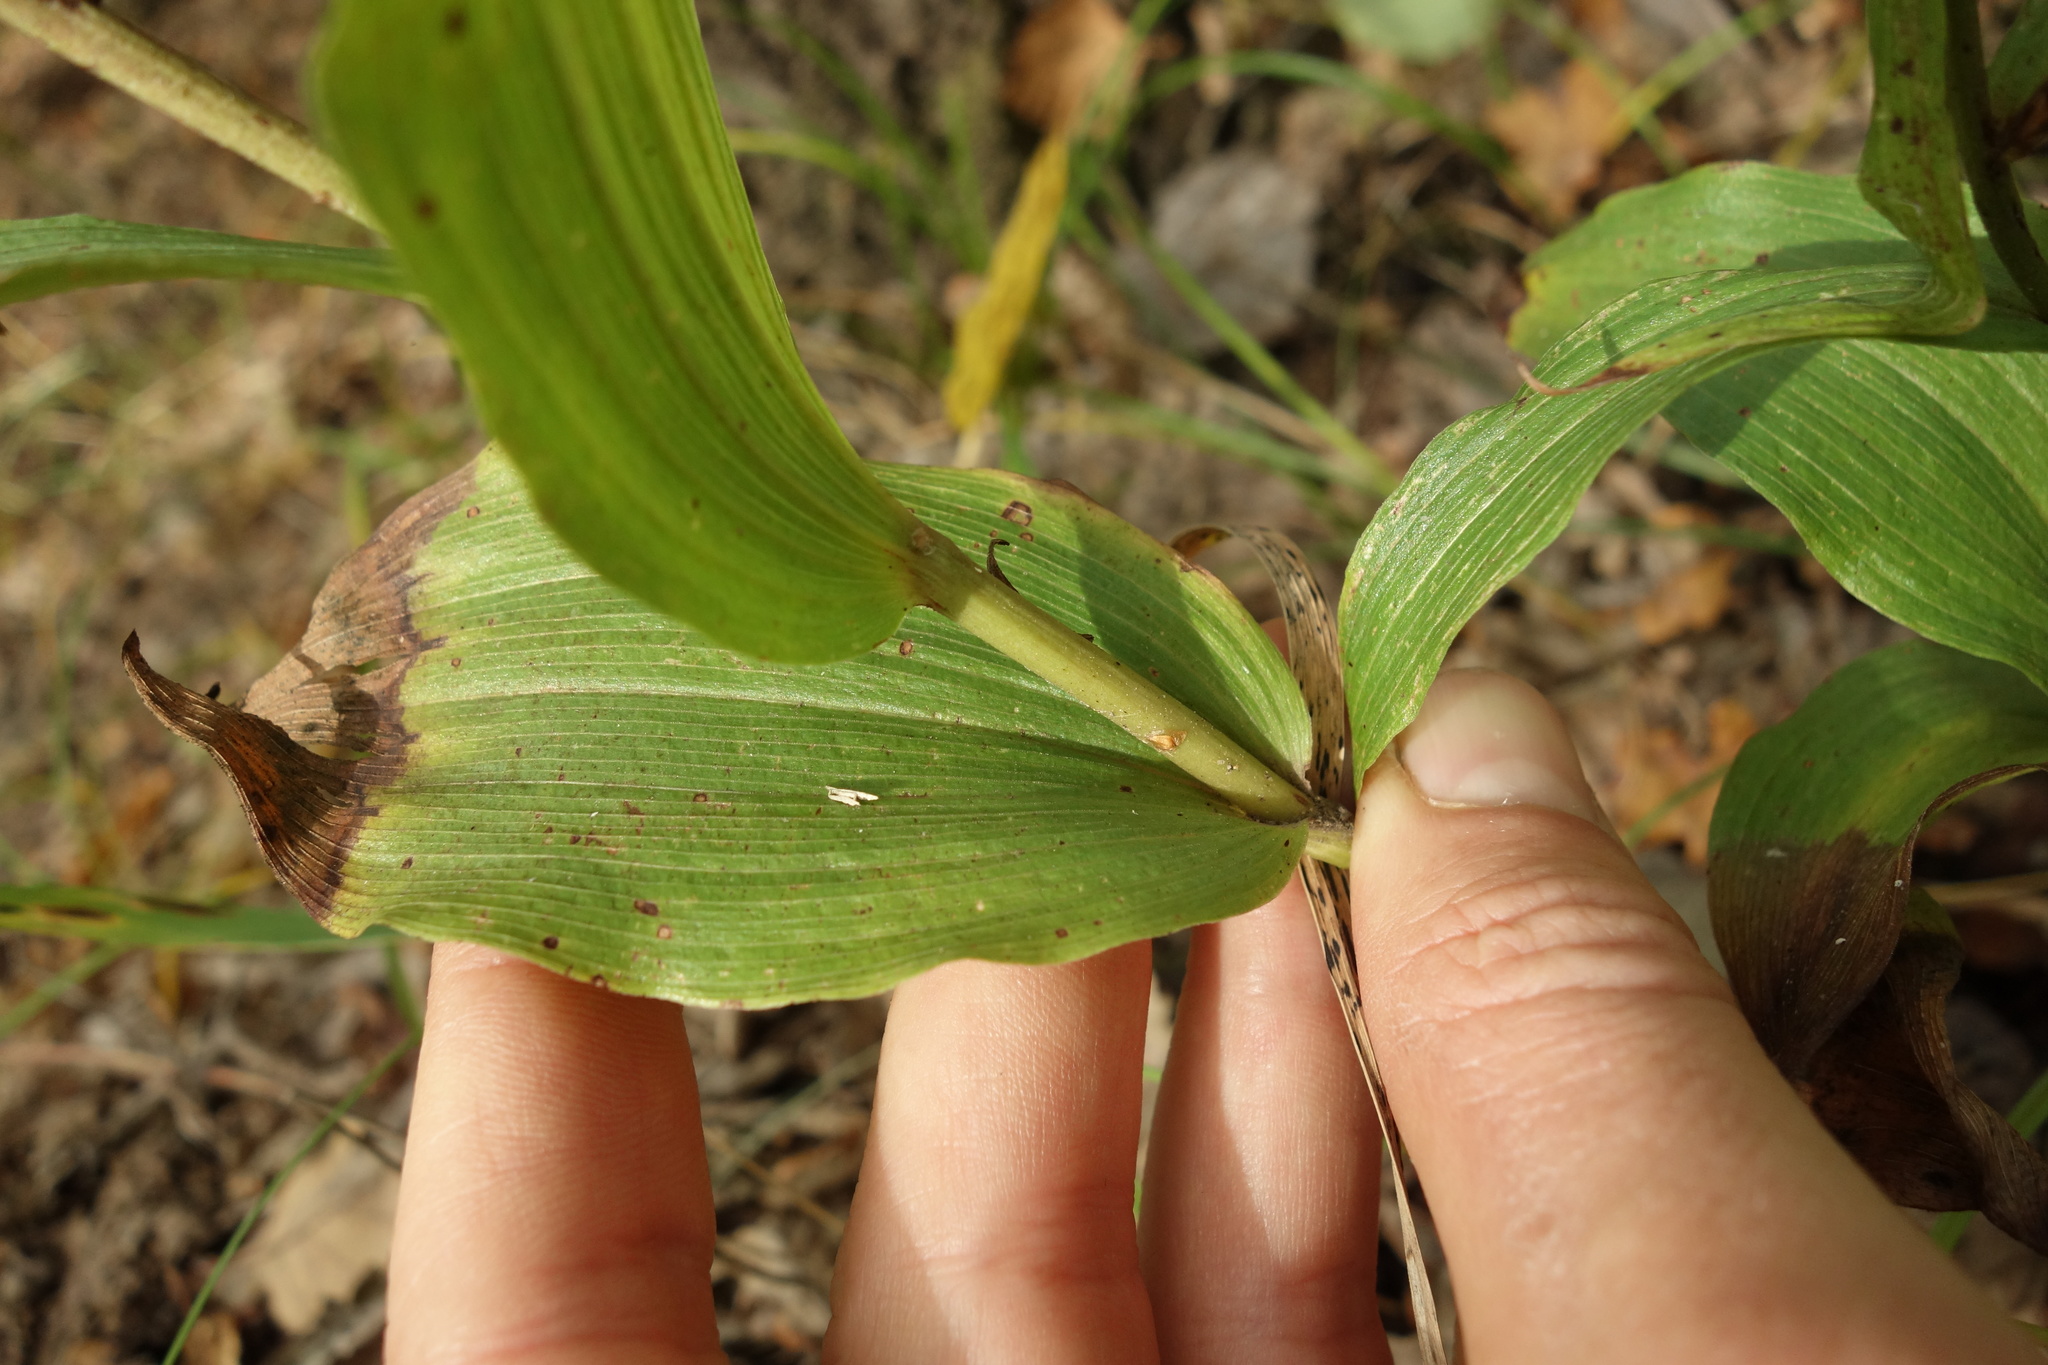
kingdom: Plantae
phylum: Tracheophyta
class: Liliopsida
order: Asparagales
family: Orchidaceae
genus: Epipactis
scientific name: Epipactis helleborine
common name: Broad-leaved helleborine
